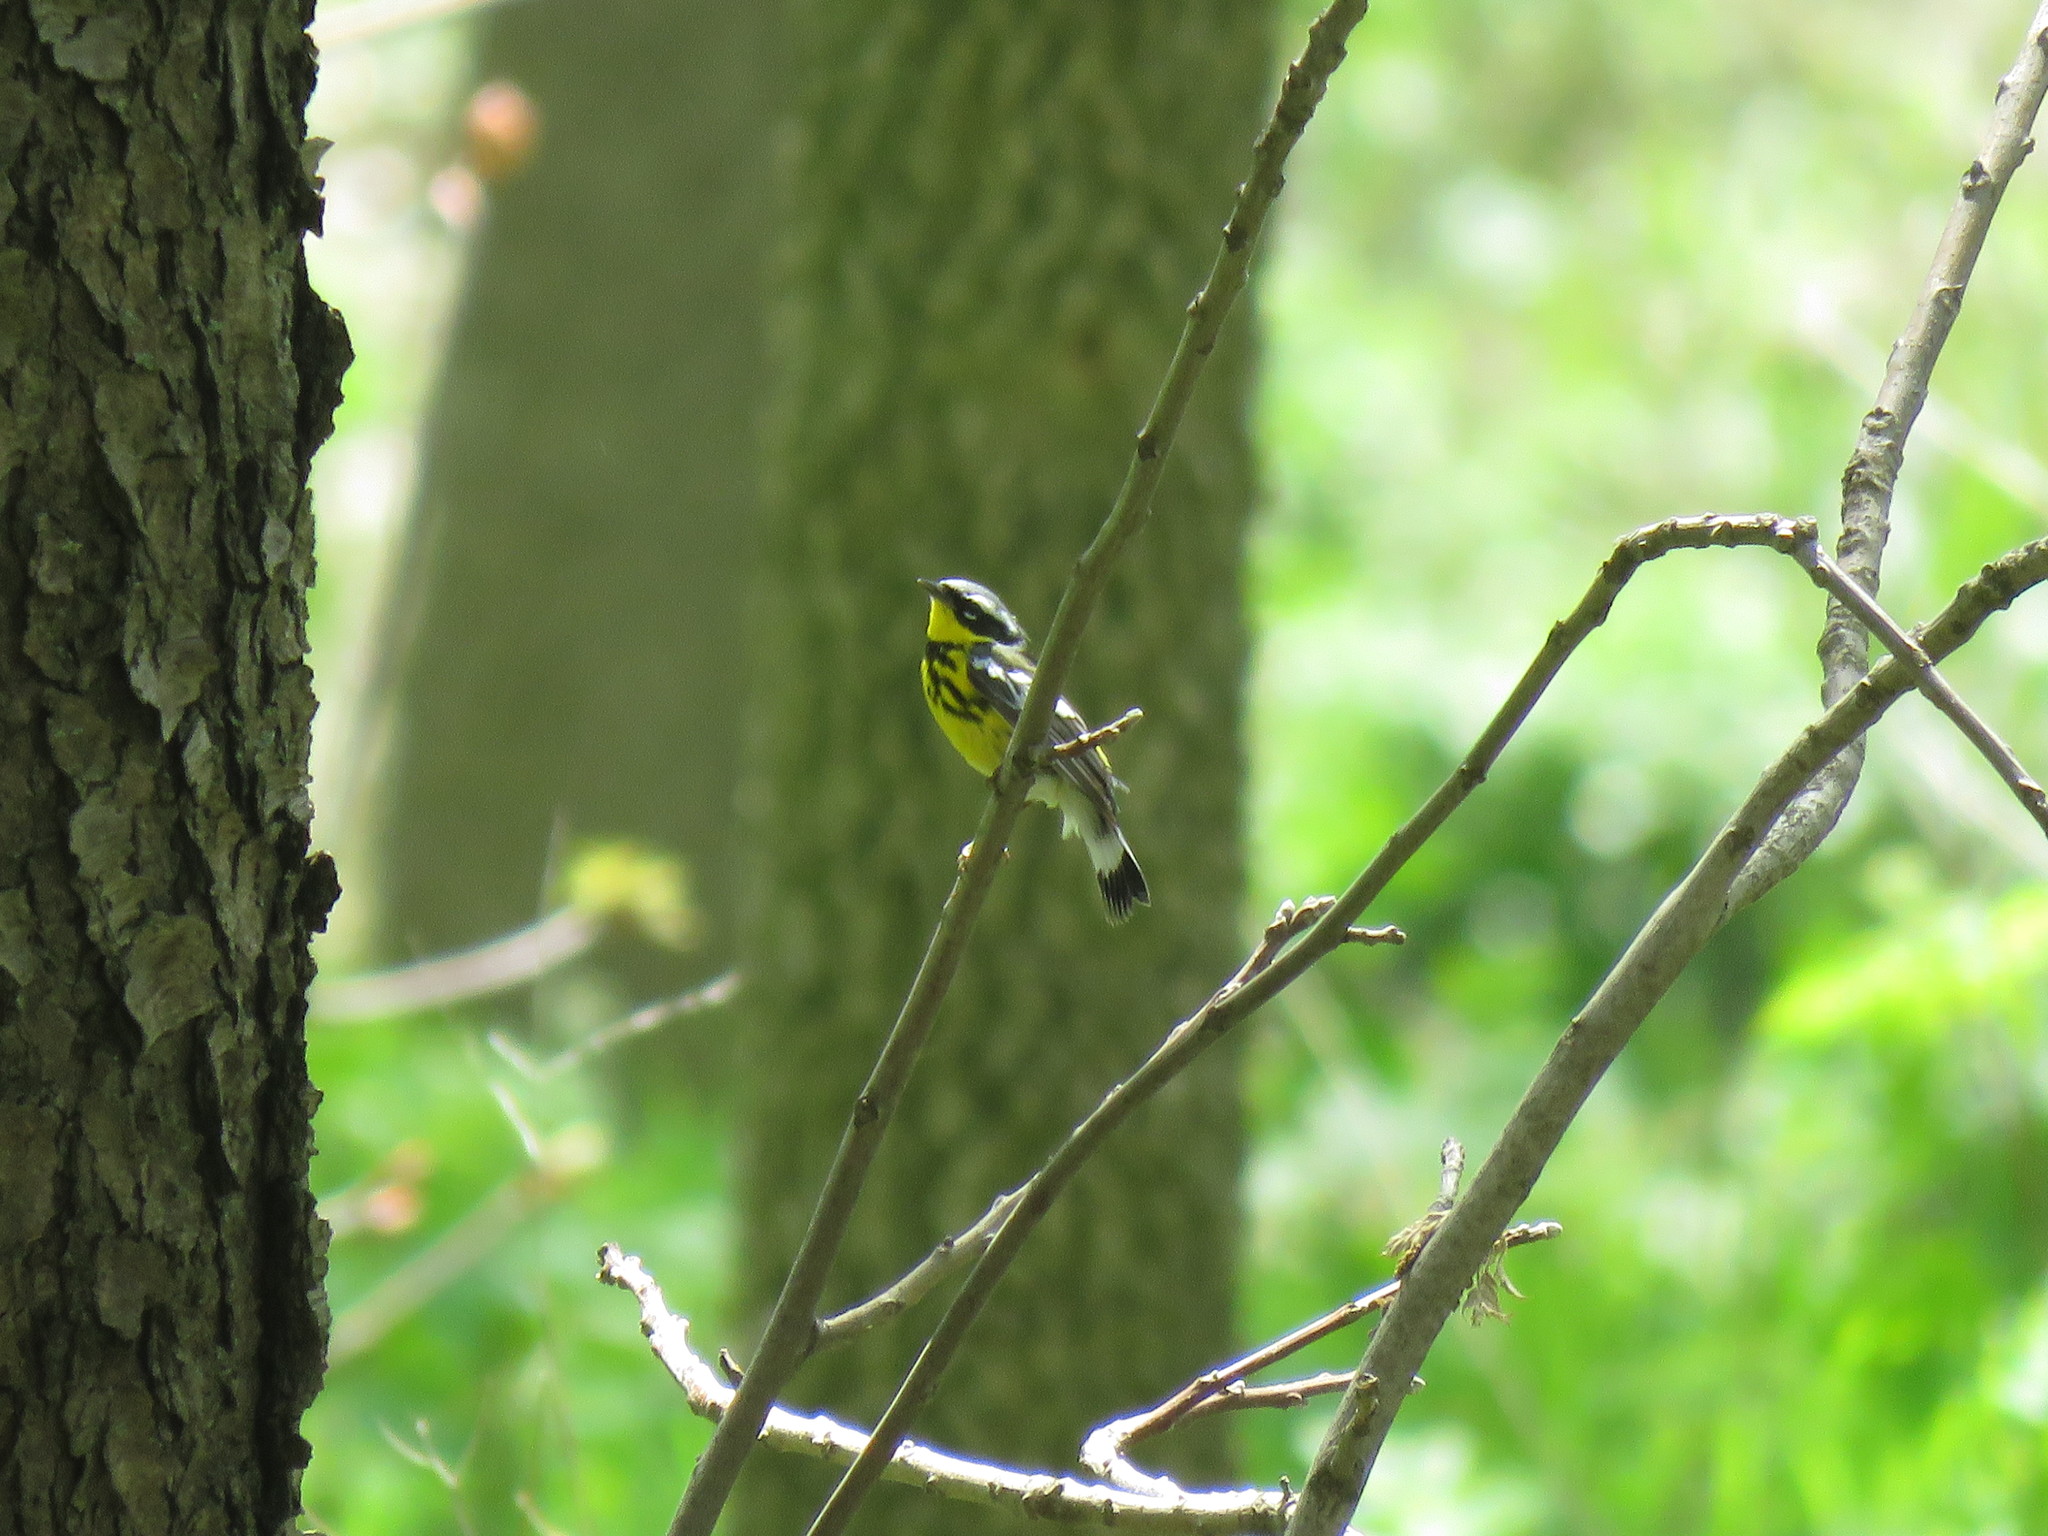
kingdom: Animalia
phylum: Chordata
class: Aves
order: Passeriformes
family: Parulidae
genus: Setophaga
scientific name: Setophaga magnolia
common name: Magnolia warbler
